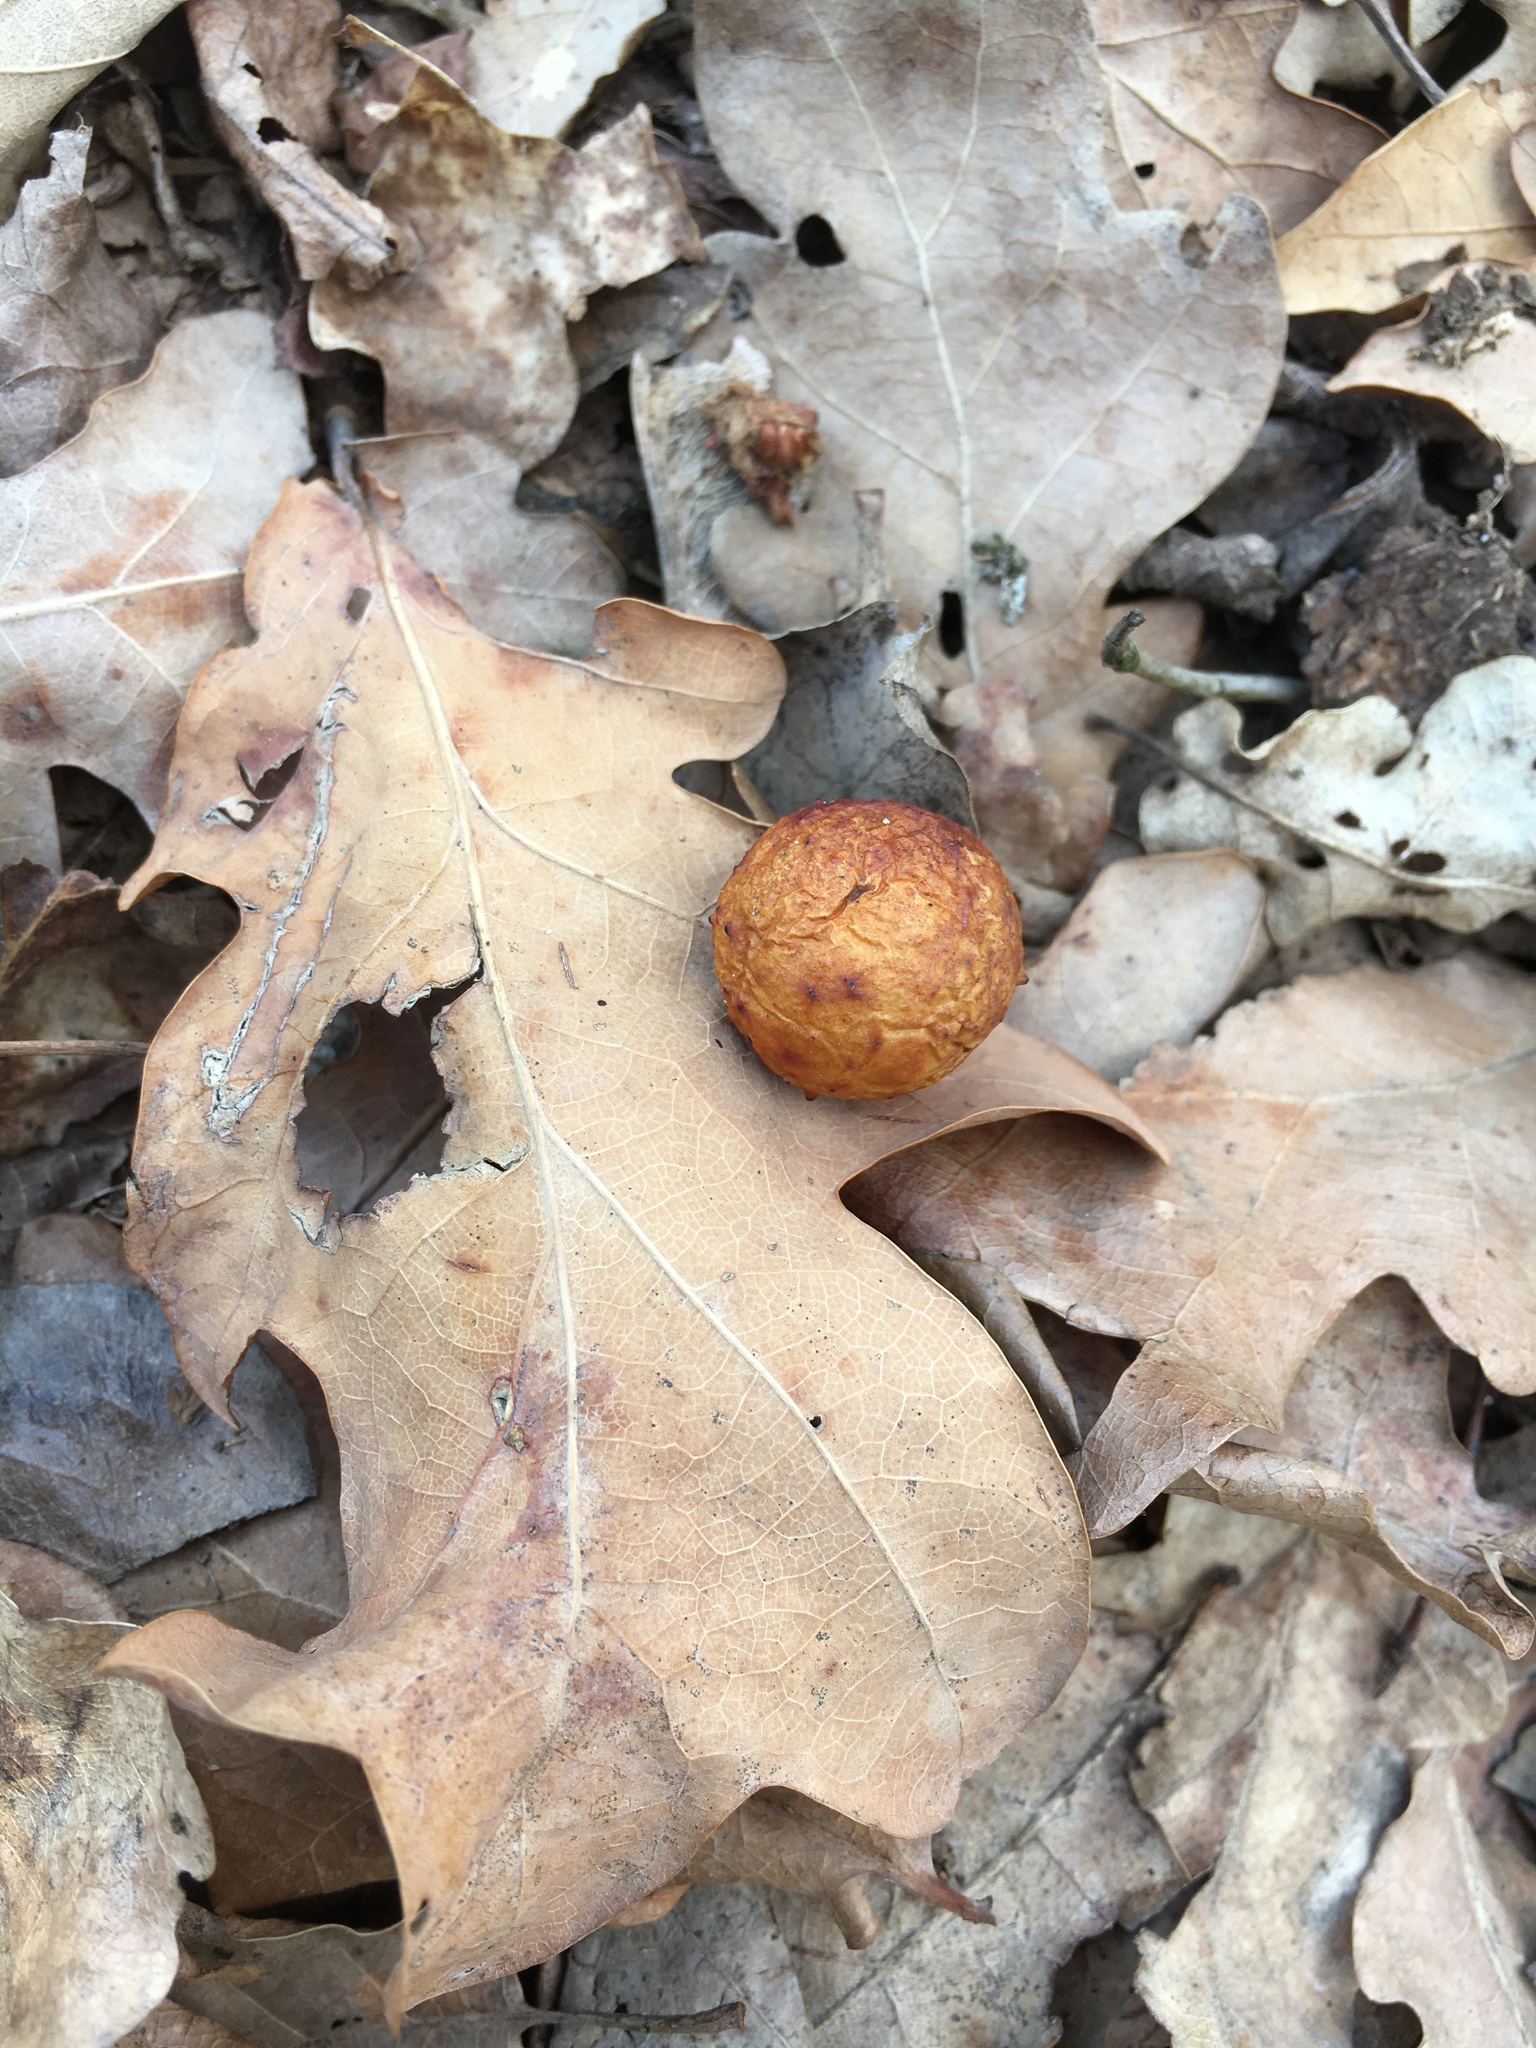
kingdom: Animalia
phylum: Arthropoda
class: Insecta
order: Hymenoptera
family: Cynipidae
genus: Cynips
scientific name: Cynips quercusfolii
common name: Cherry gall
